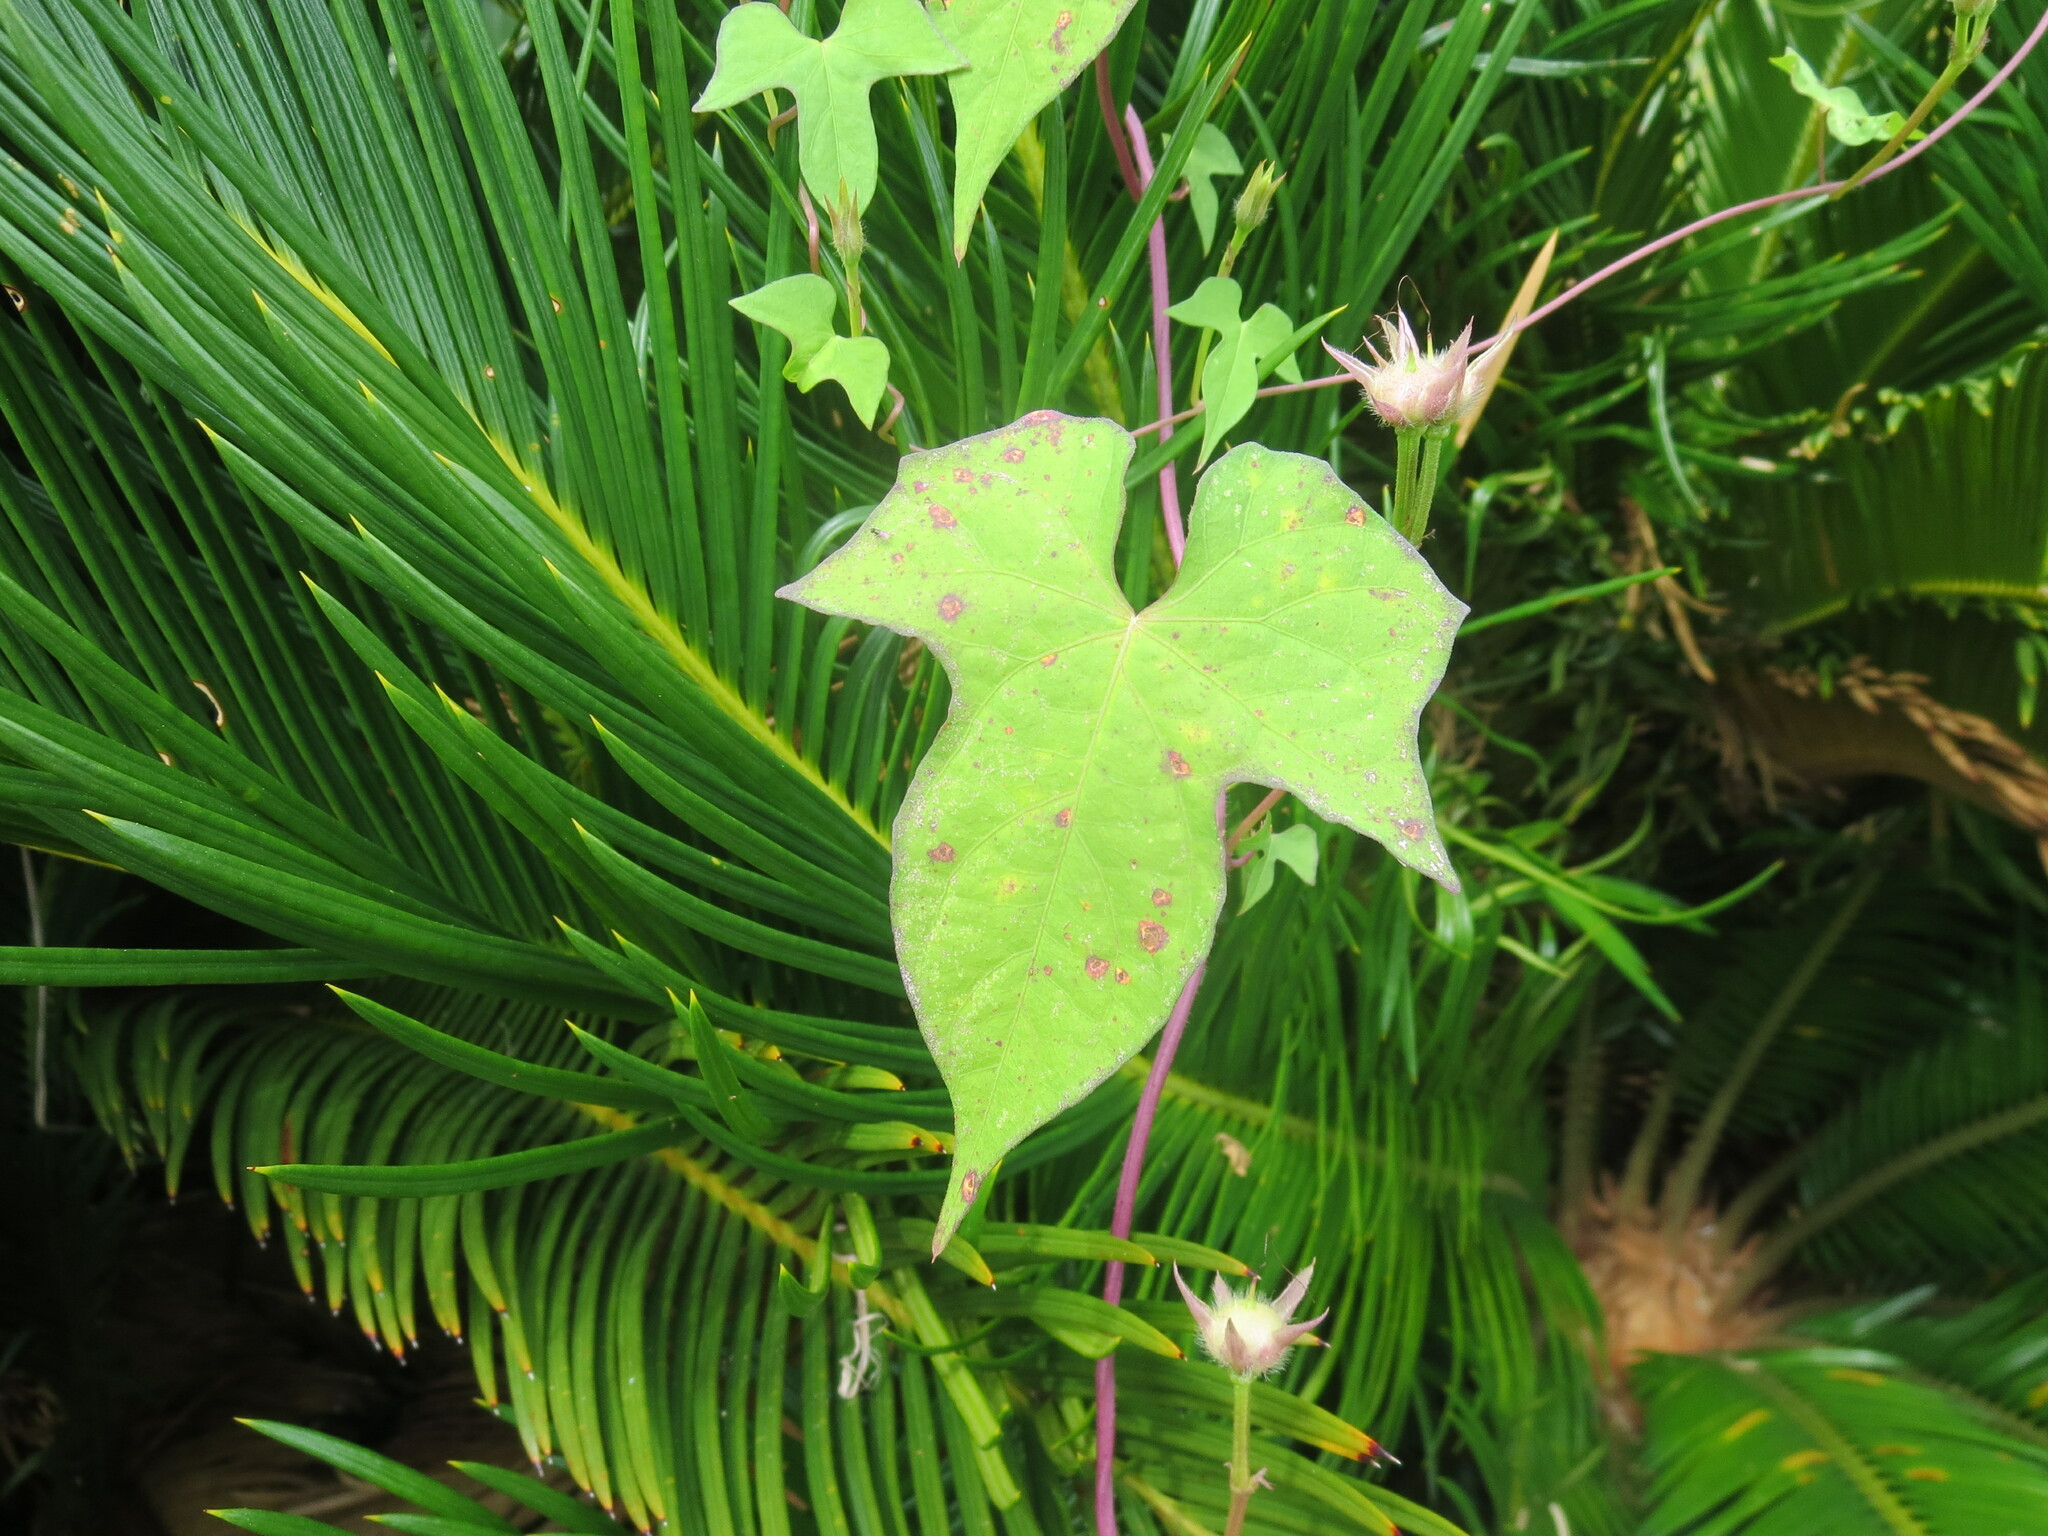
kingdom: Plantae
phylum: Tracheophyta
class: Magnoliopsida
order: Solanales
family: Convolvulaceae
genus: Ipomoea
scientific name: Ipomoea cordatotriloba
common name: Cotton morning glory
